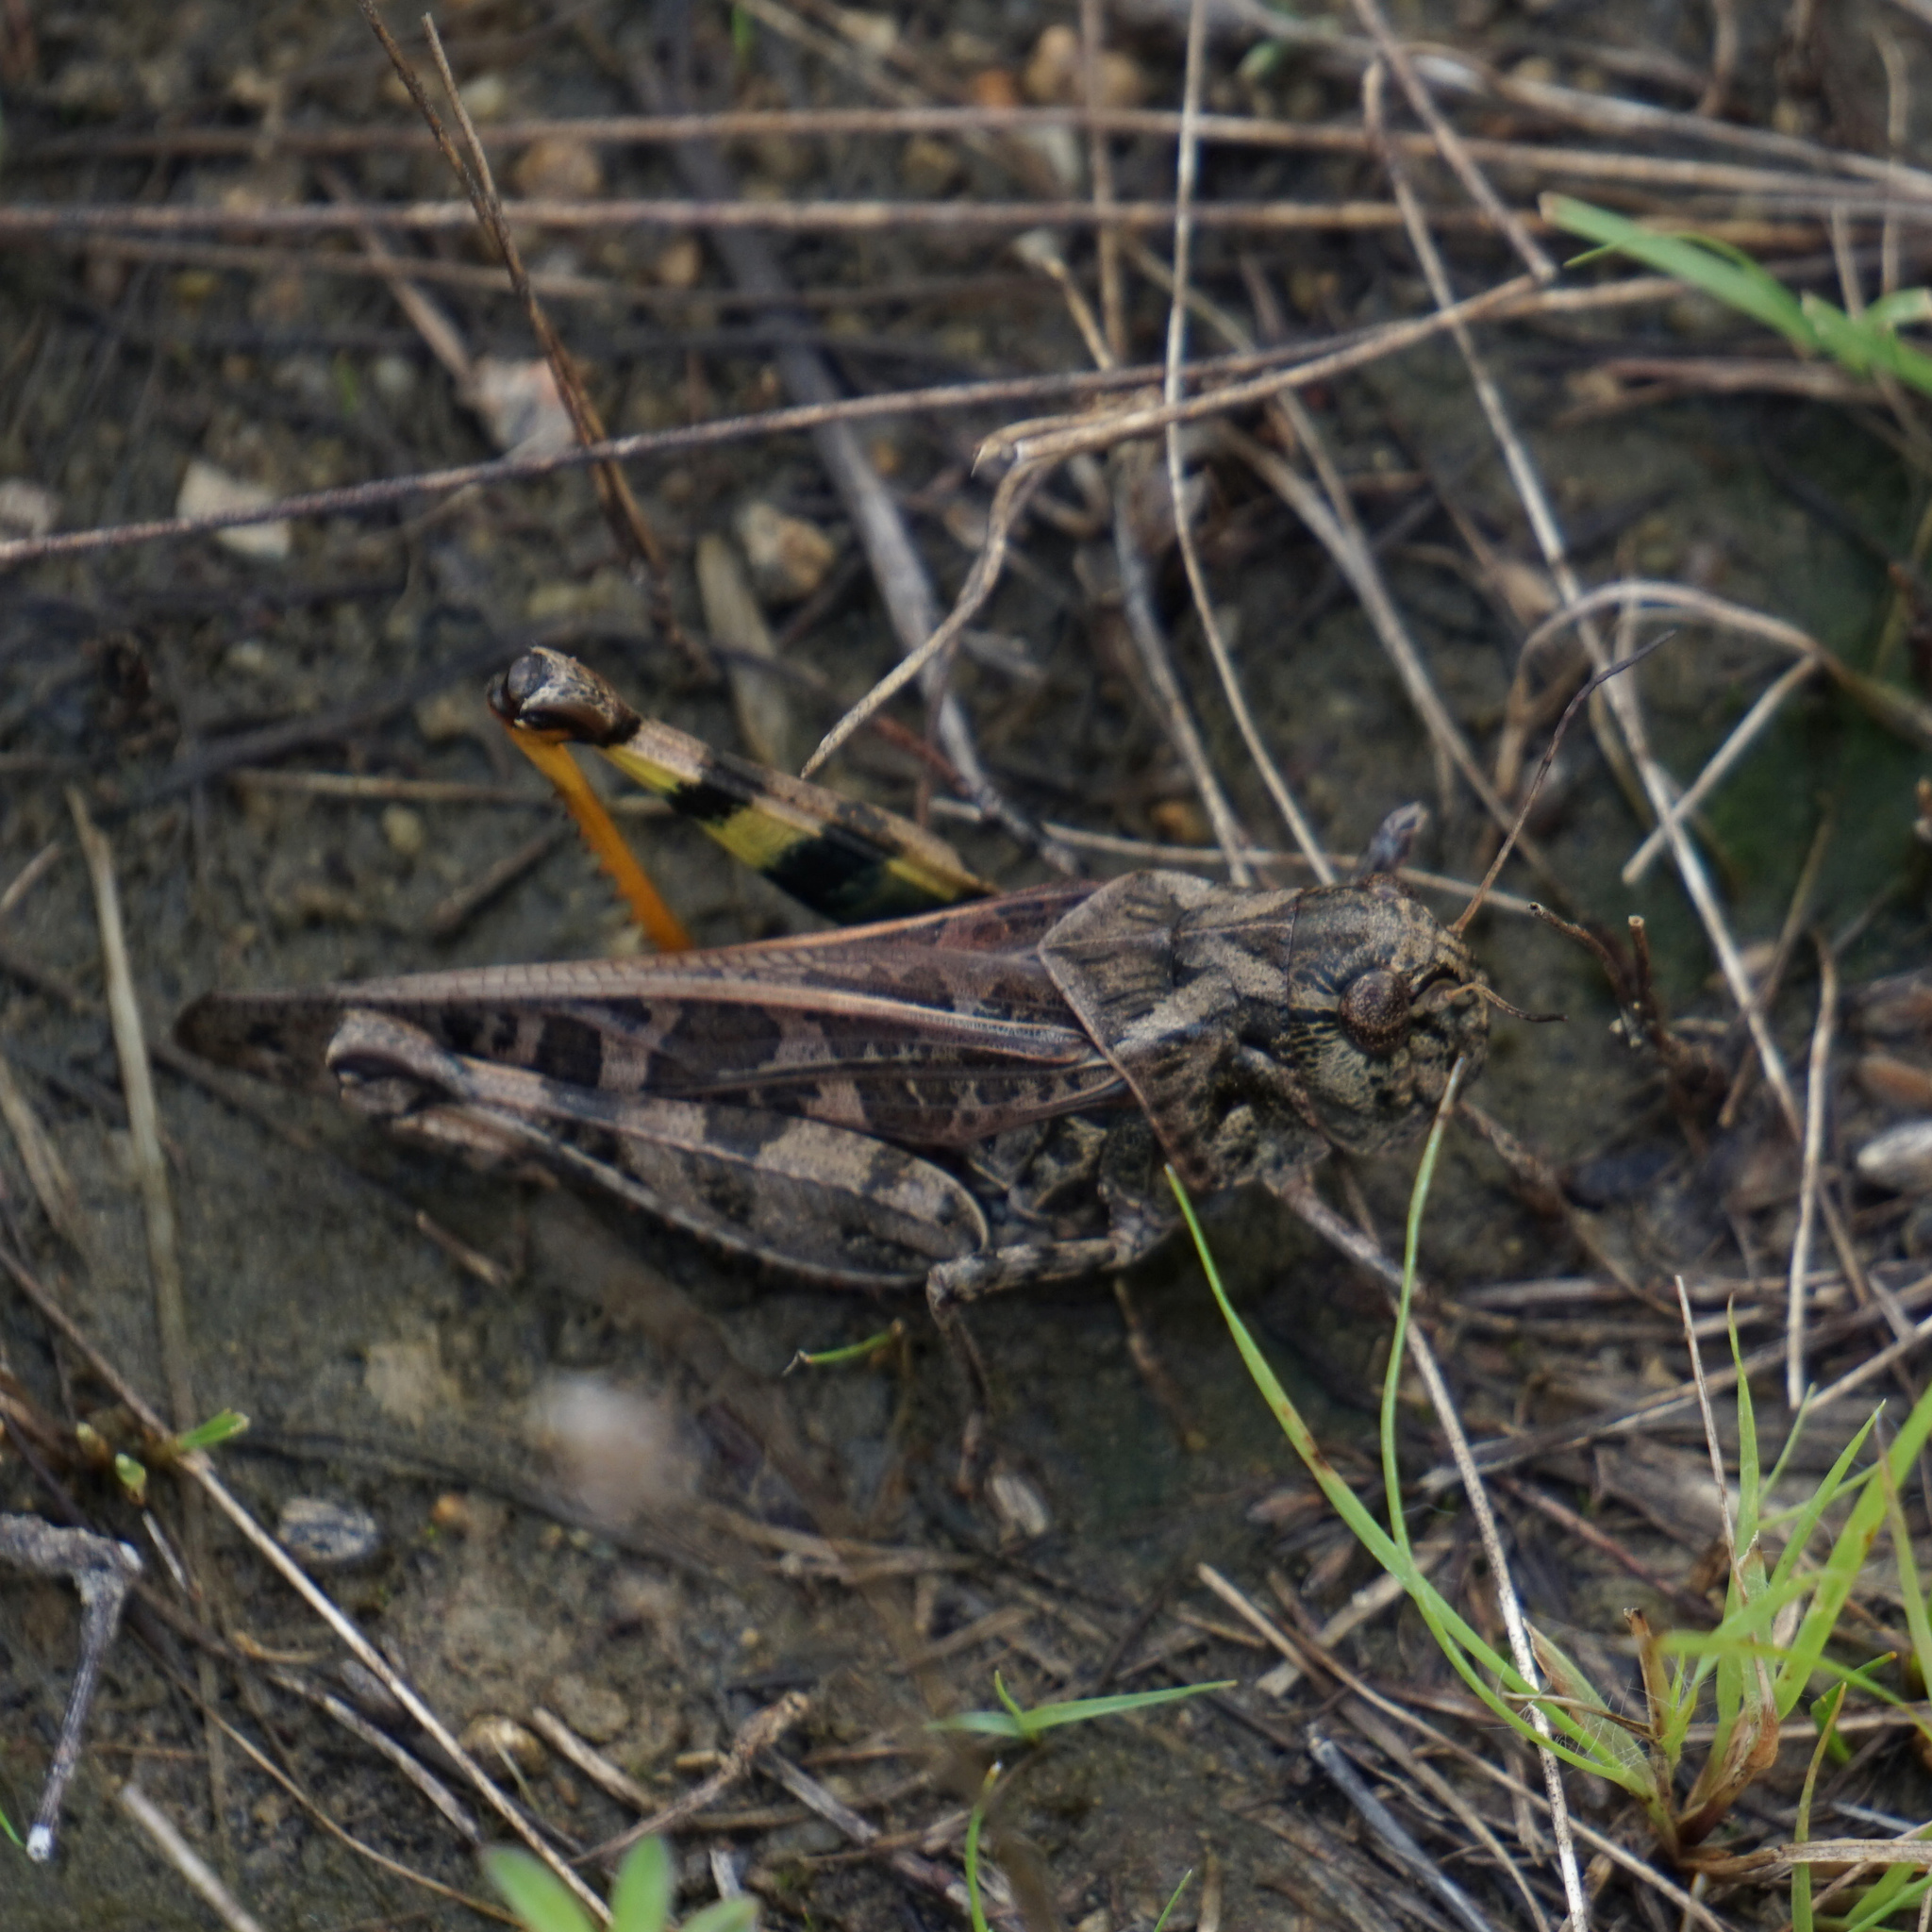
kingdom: Animalia
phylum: Arthropoda
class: Insecta
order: Orthoptera
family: Acrididae
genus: Hippiscus
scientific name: Hippiscus ocelote
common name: Wrinkled grasshopper
